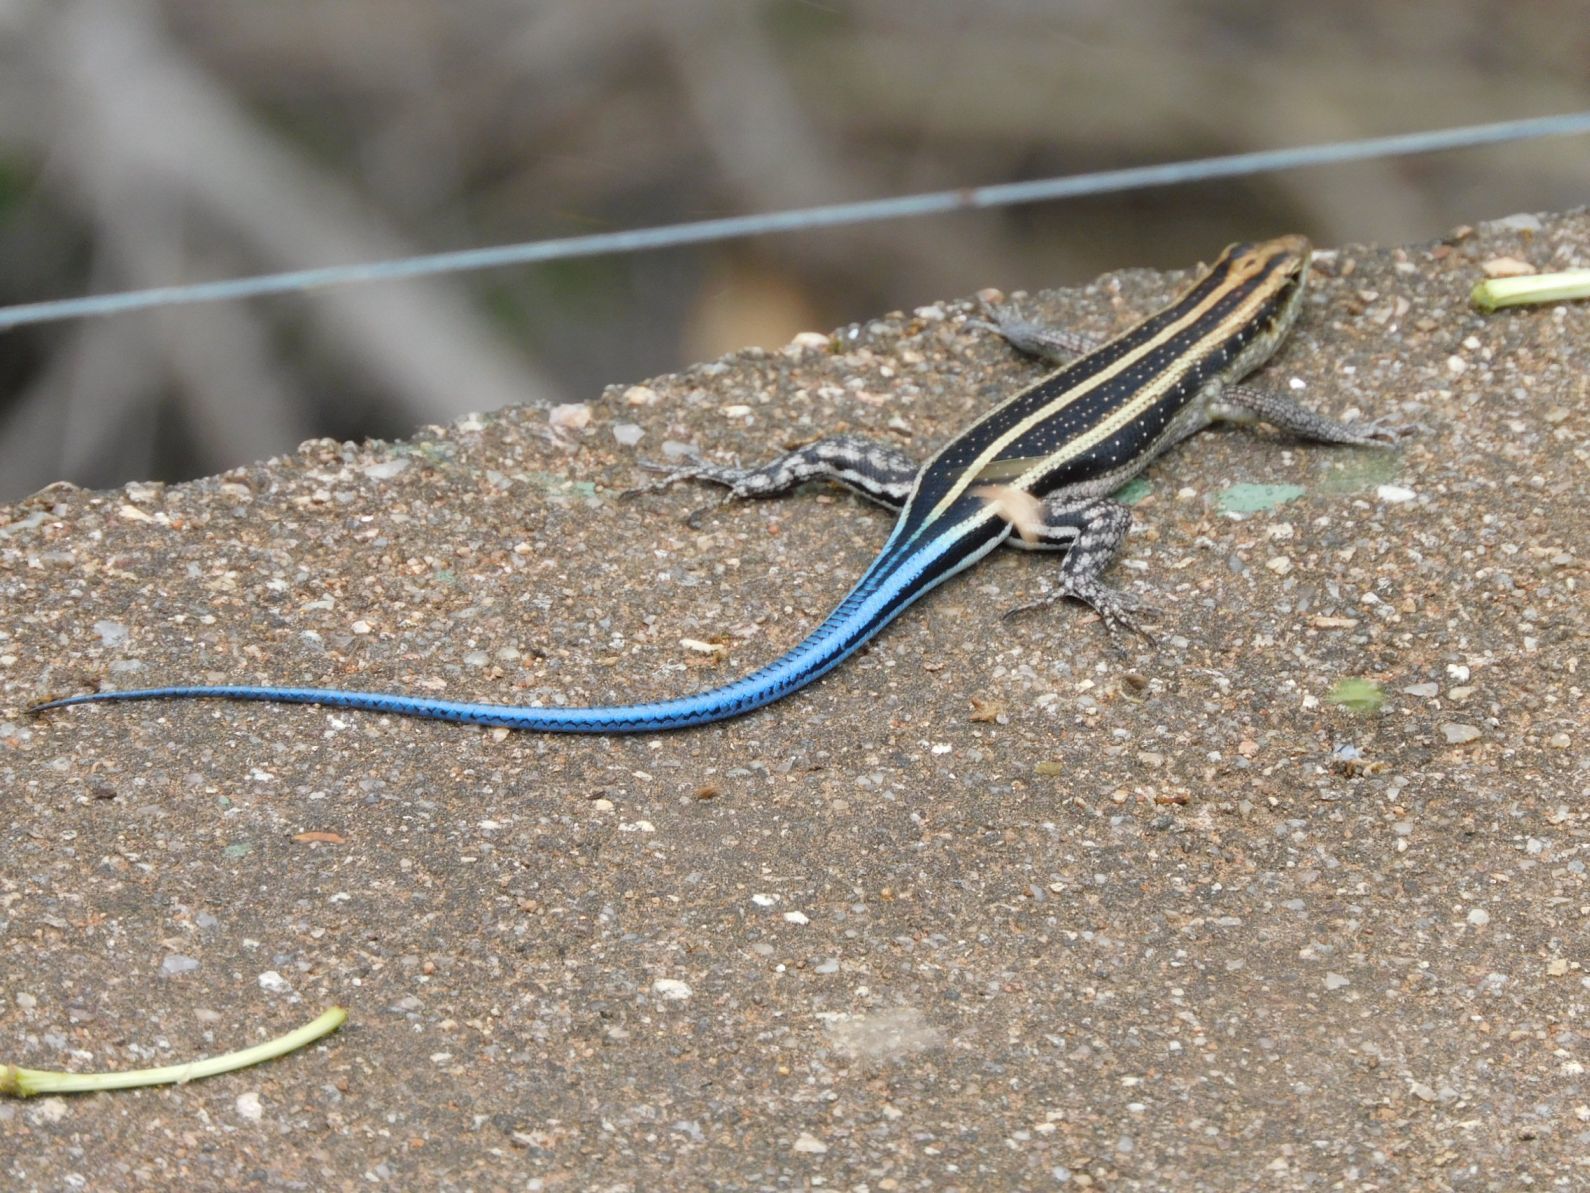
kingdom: Animalia
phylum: Chordata
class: Squamata
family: Scincidae
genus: Trachylepis
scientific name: Trachylepis margaritifera
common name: Rainbow skink
